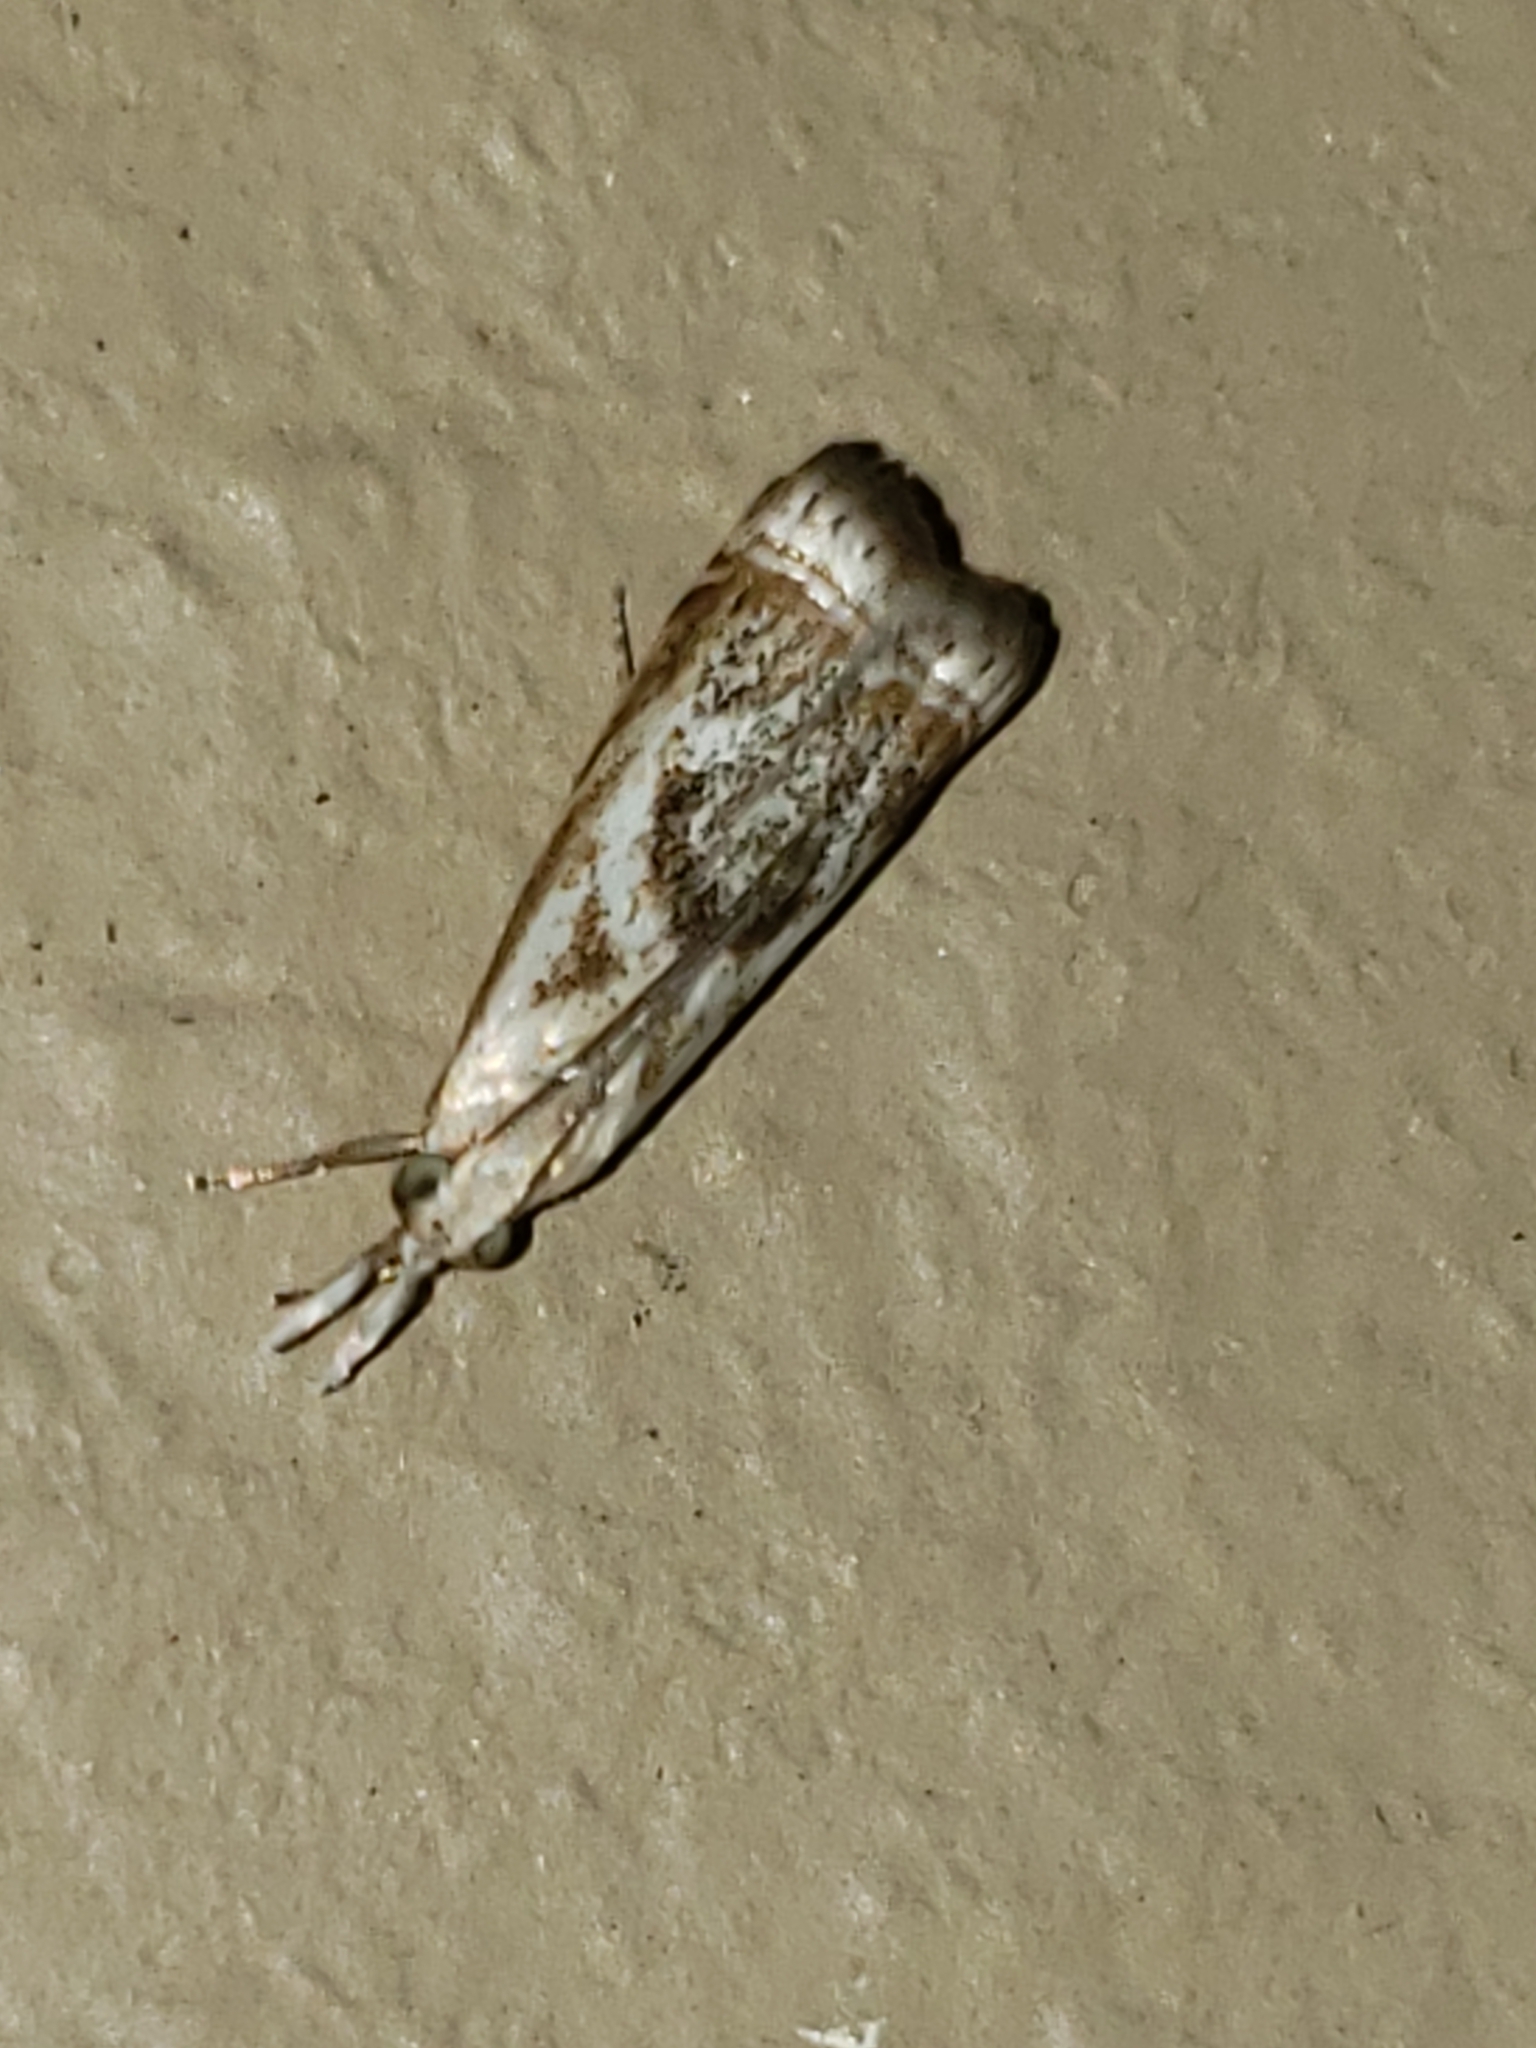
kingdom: Animalia
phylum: Arthropoda
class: Insecta
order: Lepidoptera
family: Crambidae
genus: Microcrambus
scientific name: Microcrambus elegans
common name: Elegant grass-veneer
